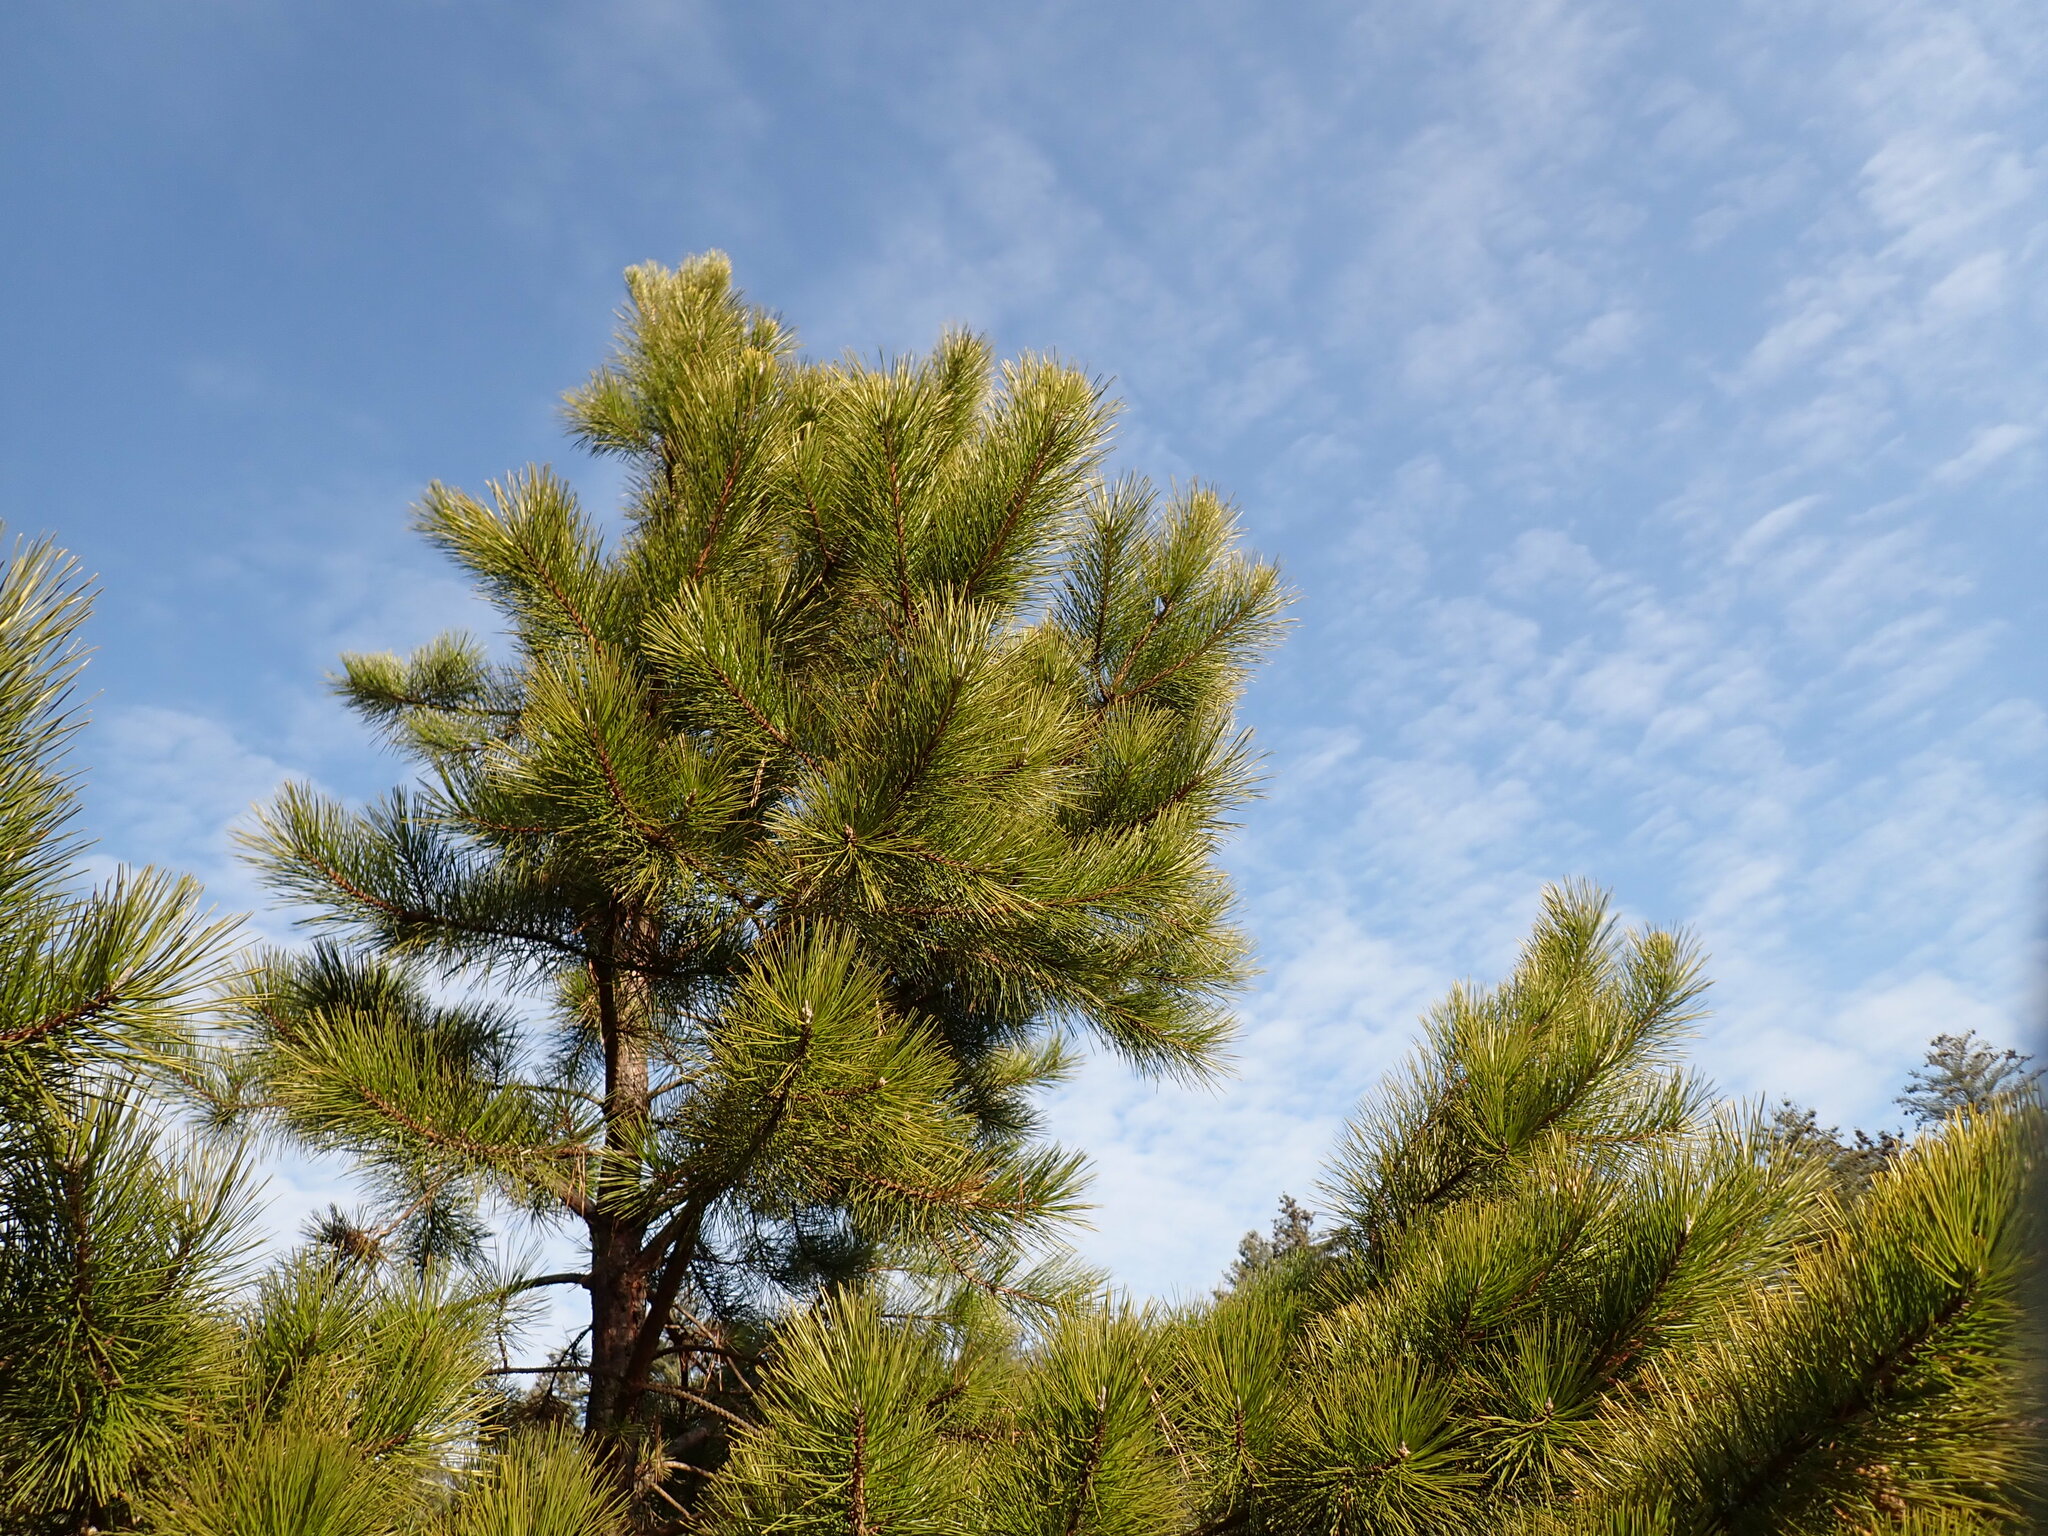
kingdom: Plantae
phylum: Tracheophyta
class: Pinopsida
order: Pinales
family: Pinaceae
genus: Pinus
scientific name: Pinus rigida
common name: Pitch pine
